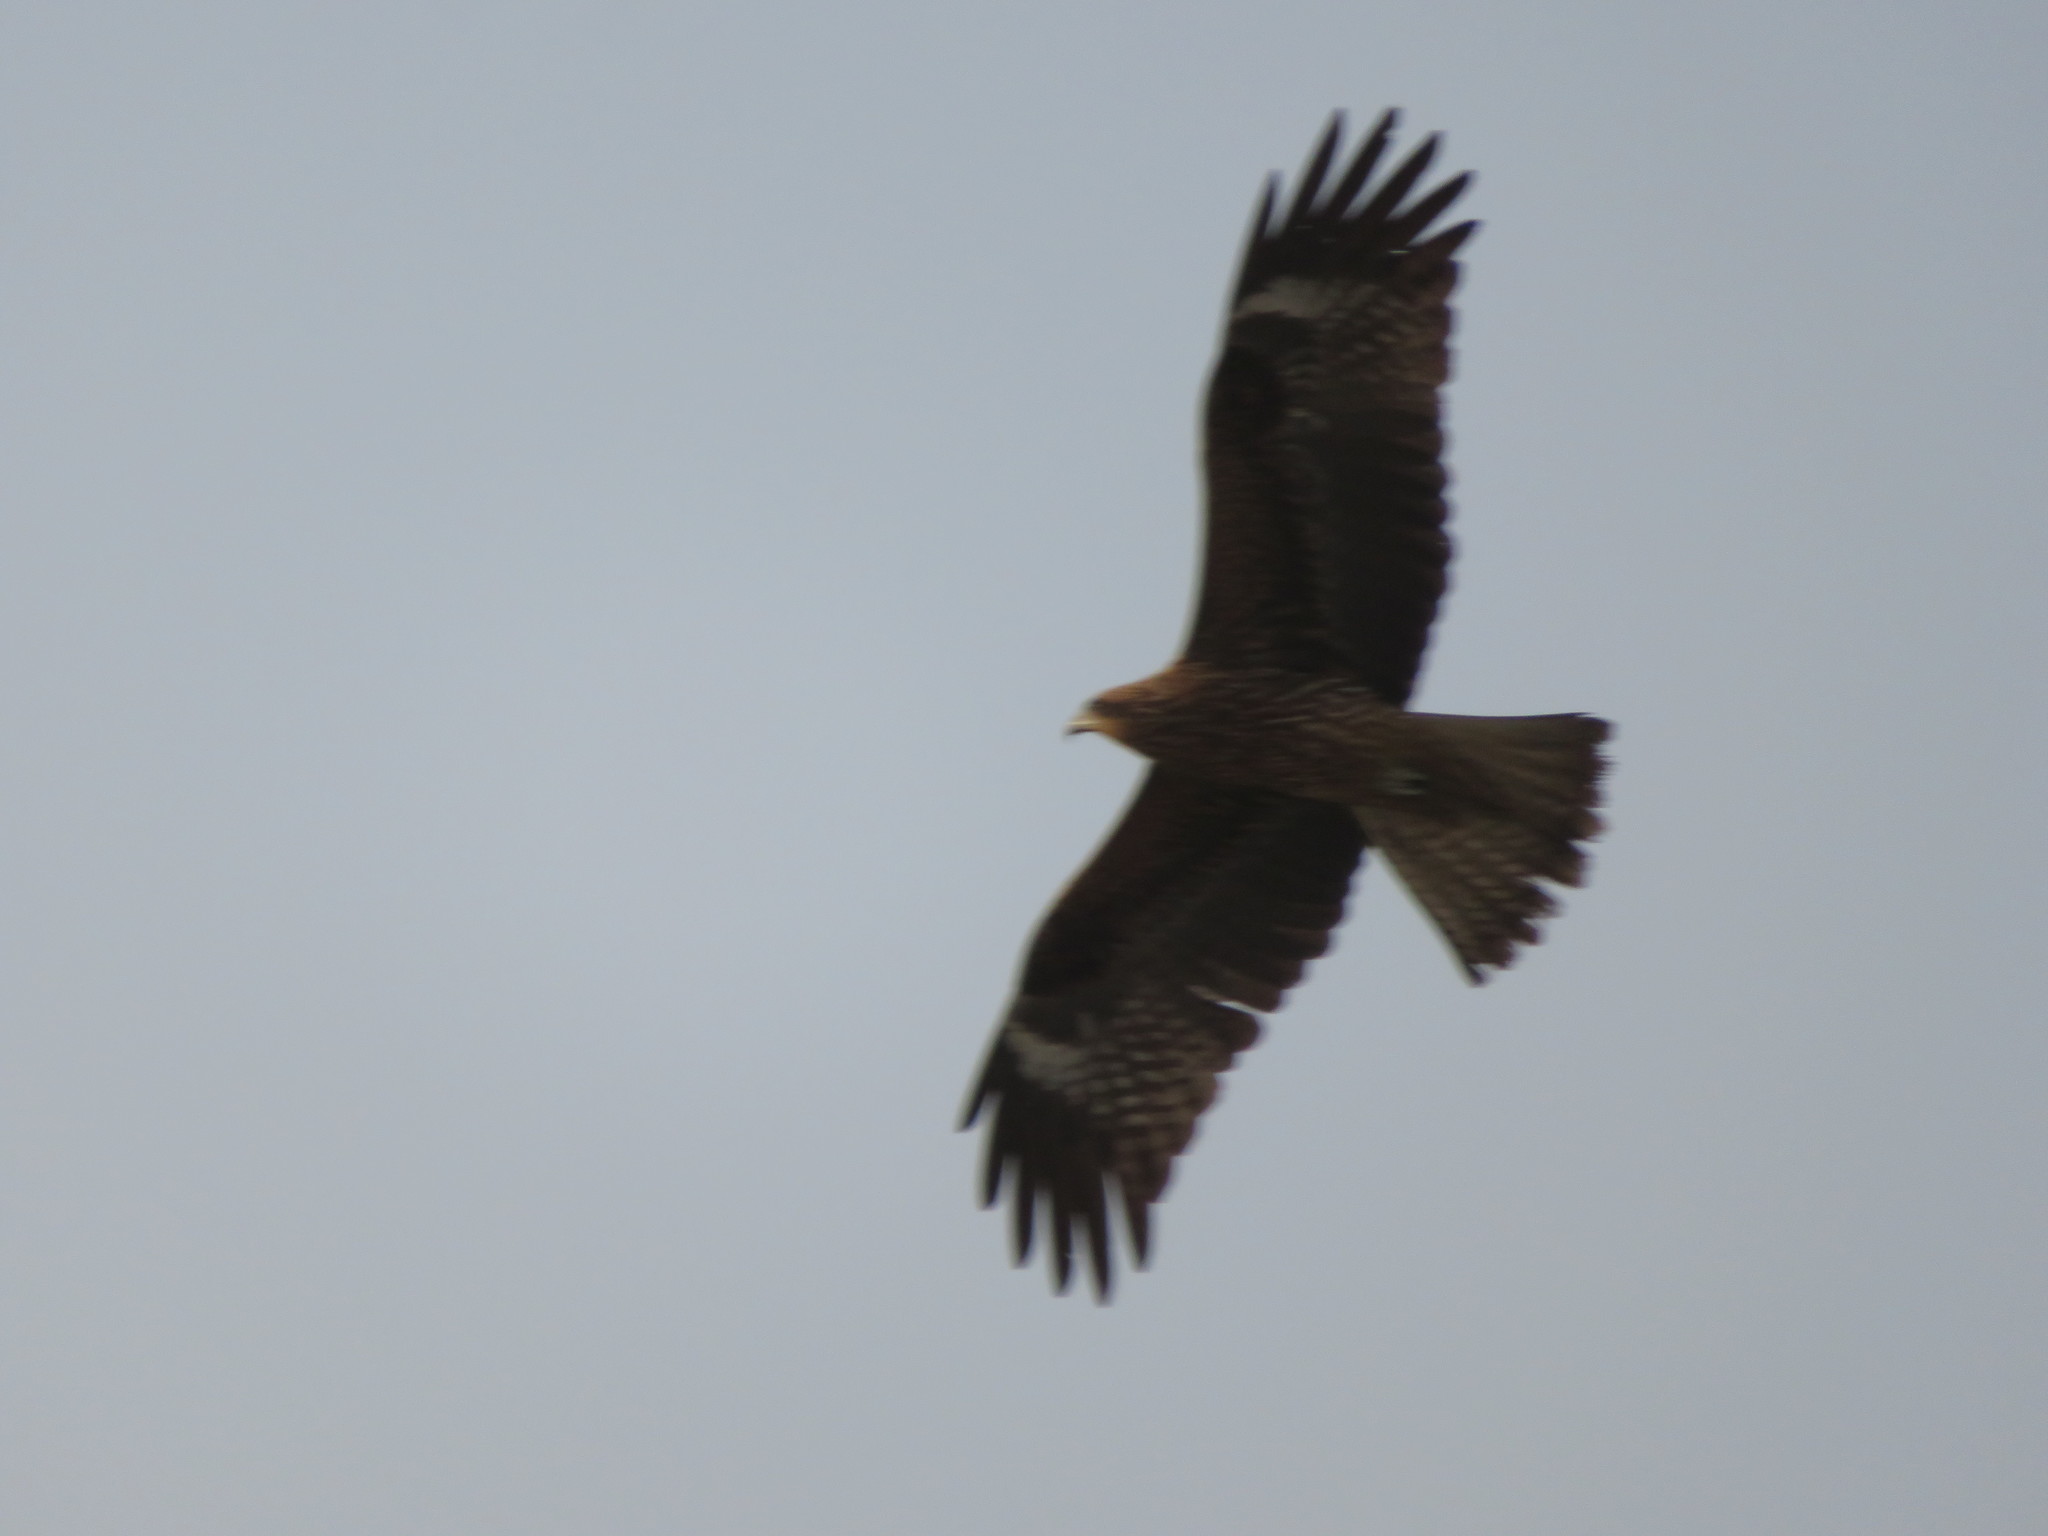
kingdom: Animalia
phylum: Chordata
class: Aves
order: Accipitriformes
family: Accipitridae
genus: Milvus
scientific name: Milvus migrans
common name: Black kite
